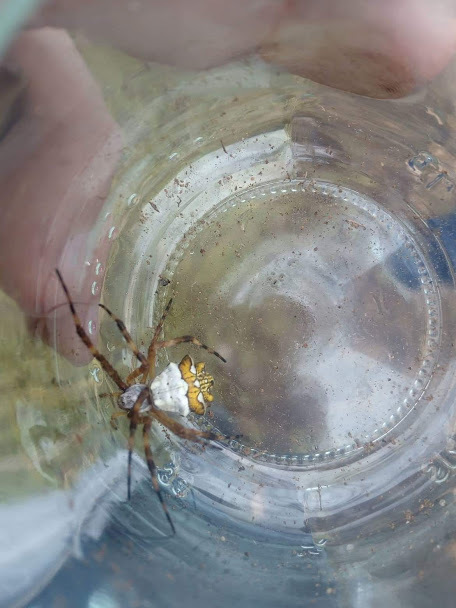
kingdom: Animalia
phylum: Arthropoda
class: Arachnida
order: Araneae
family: Araneidae
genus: Argiope
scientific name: Argiope argentata
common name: Orb weavers
